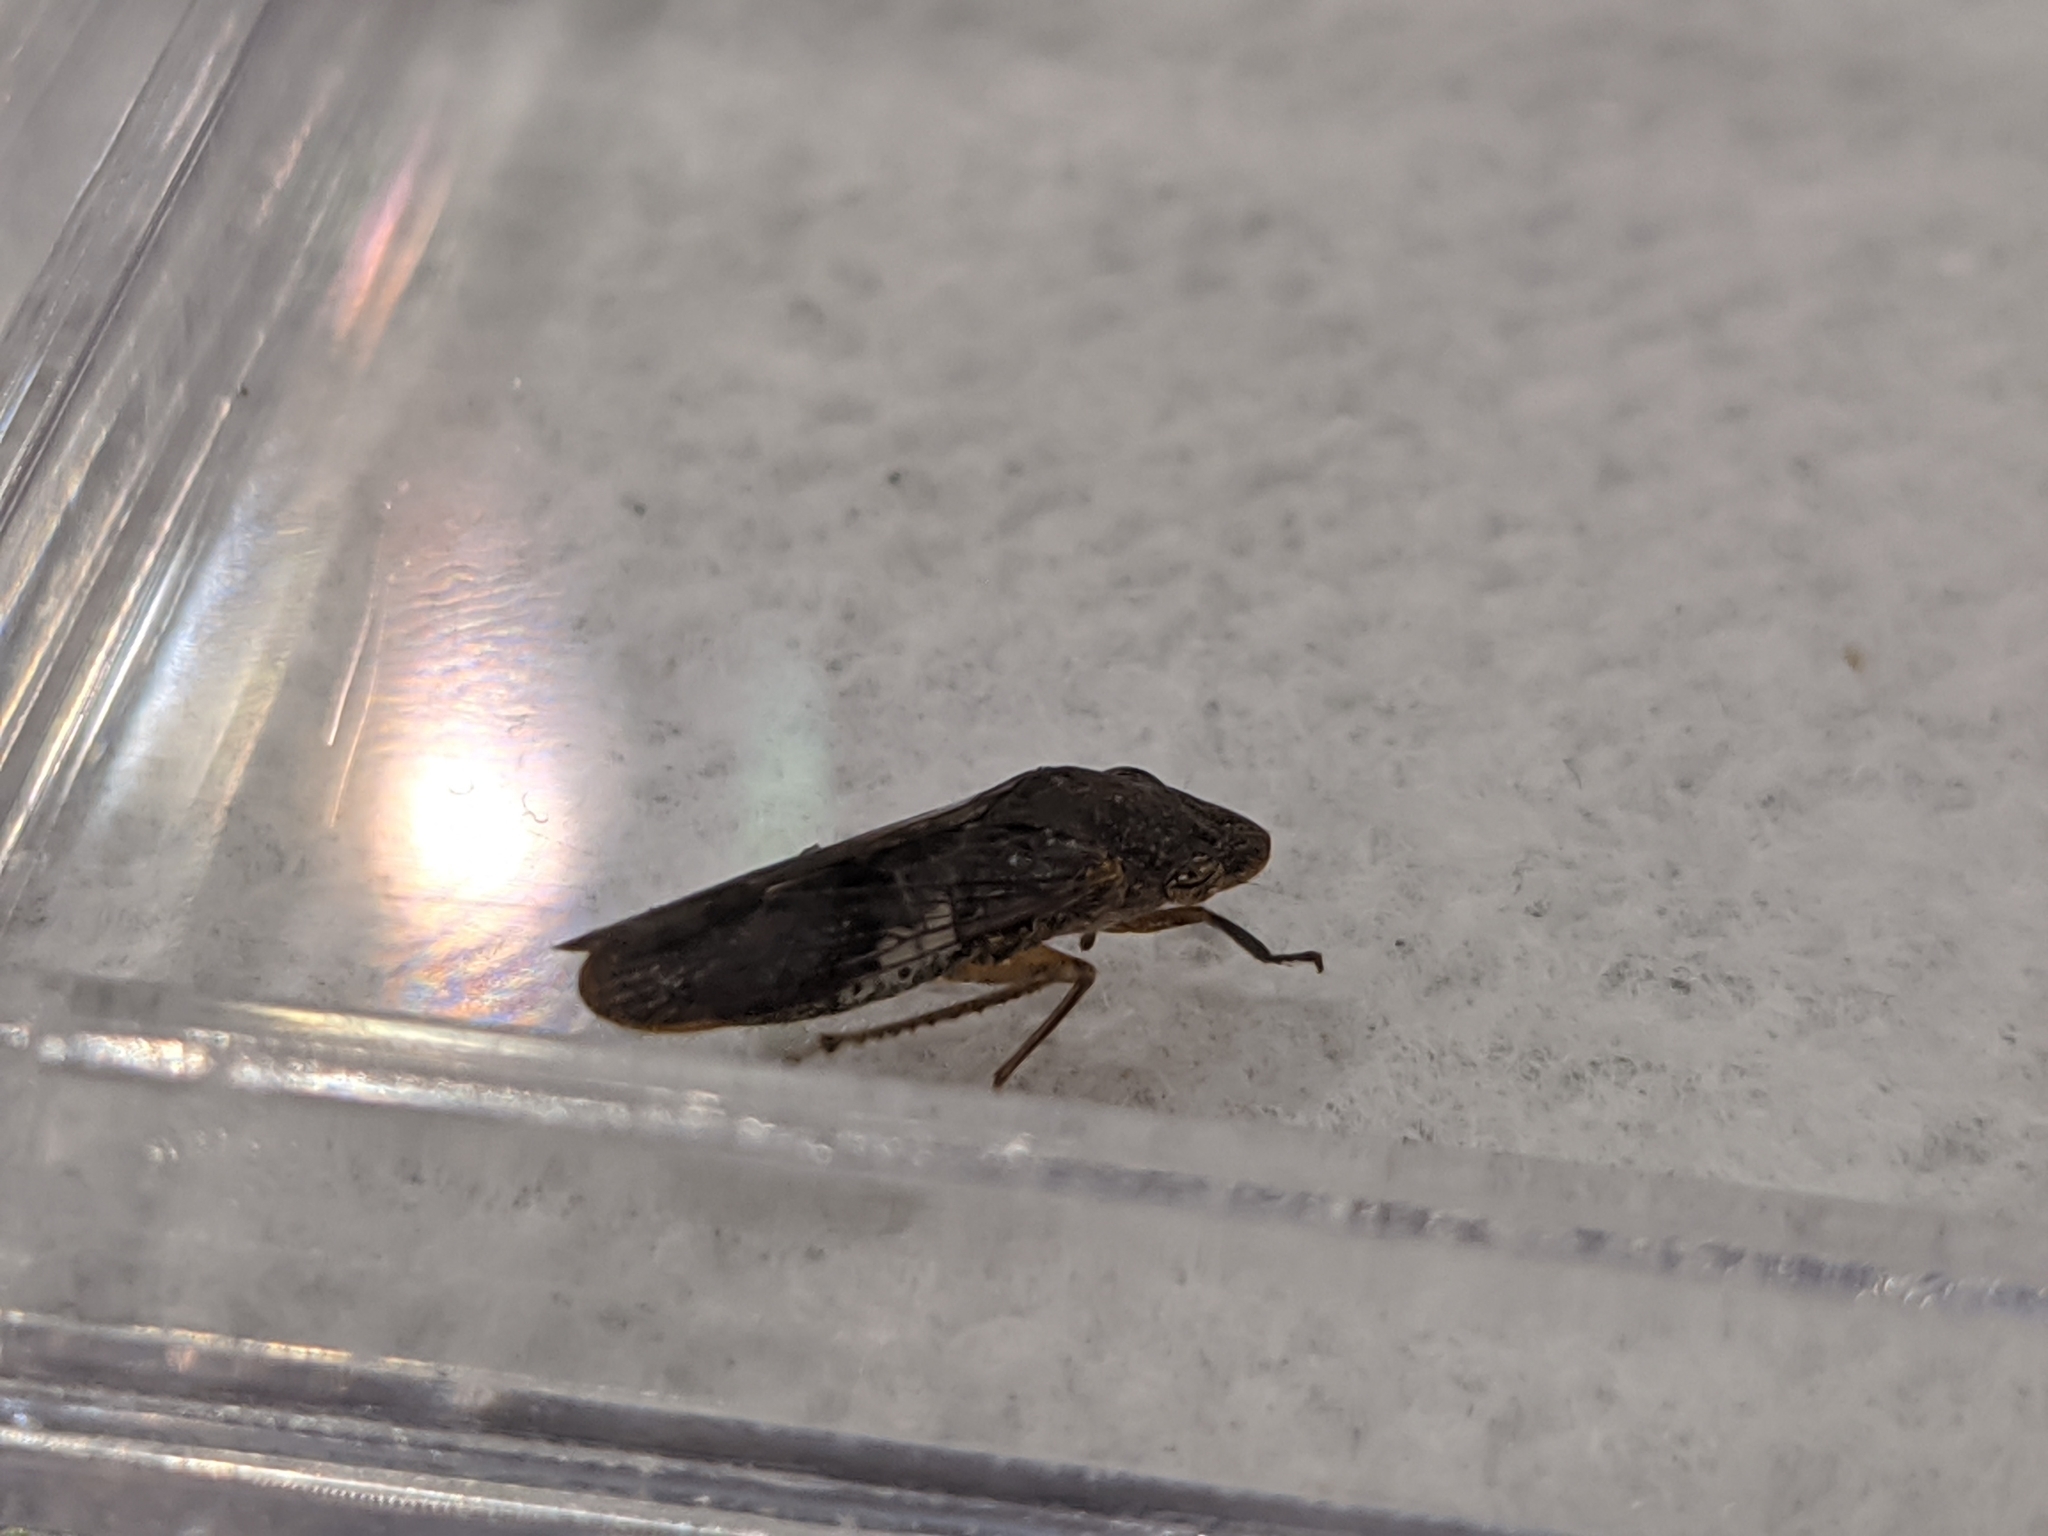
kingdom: Animalia
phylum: Arthropoda
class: Insecta
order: Hemiptera
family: Cicadellidae
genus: Homalodisca
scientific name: Homalodisca vitripennis
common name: Glassy-winged sharpshooter
